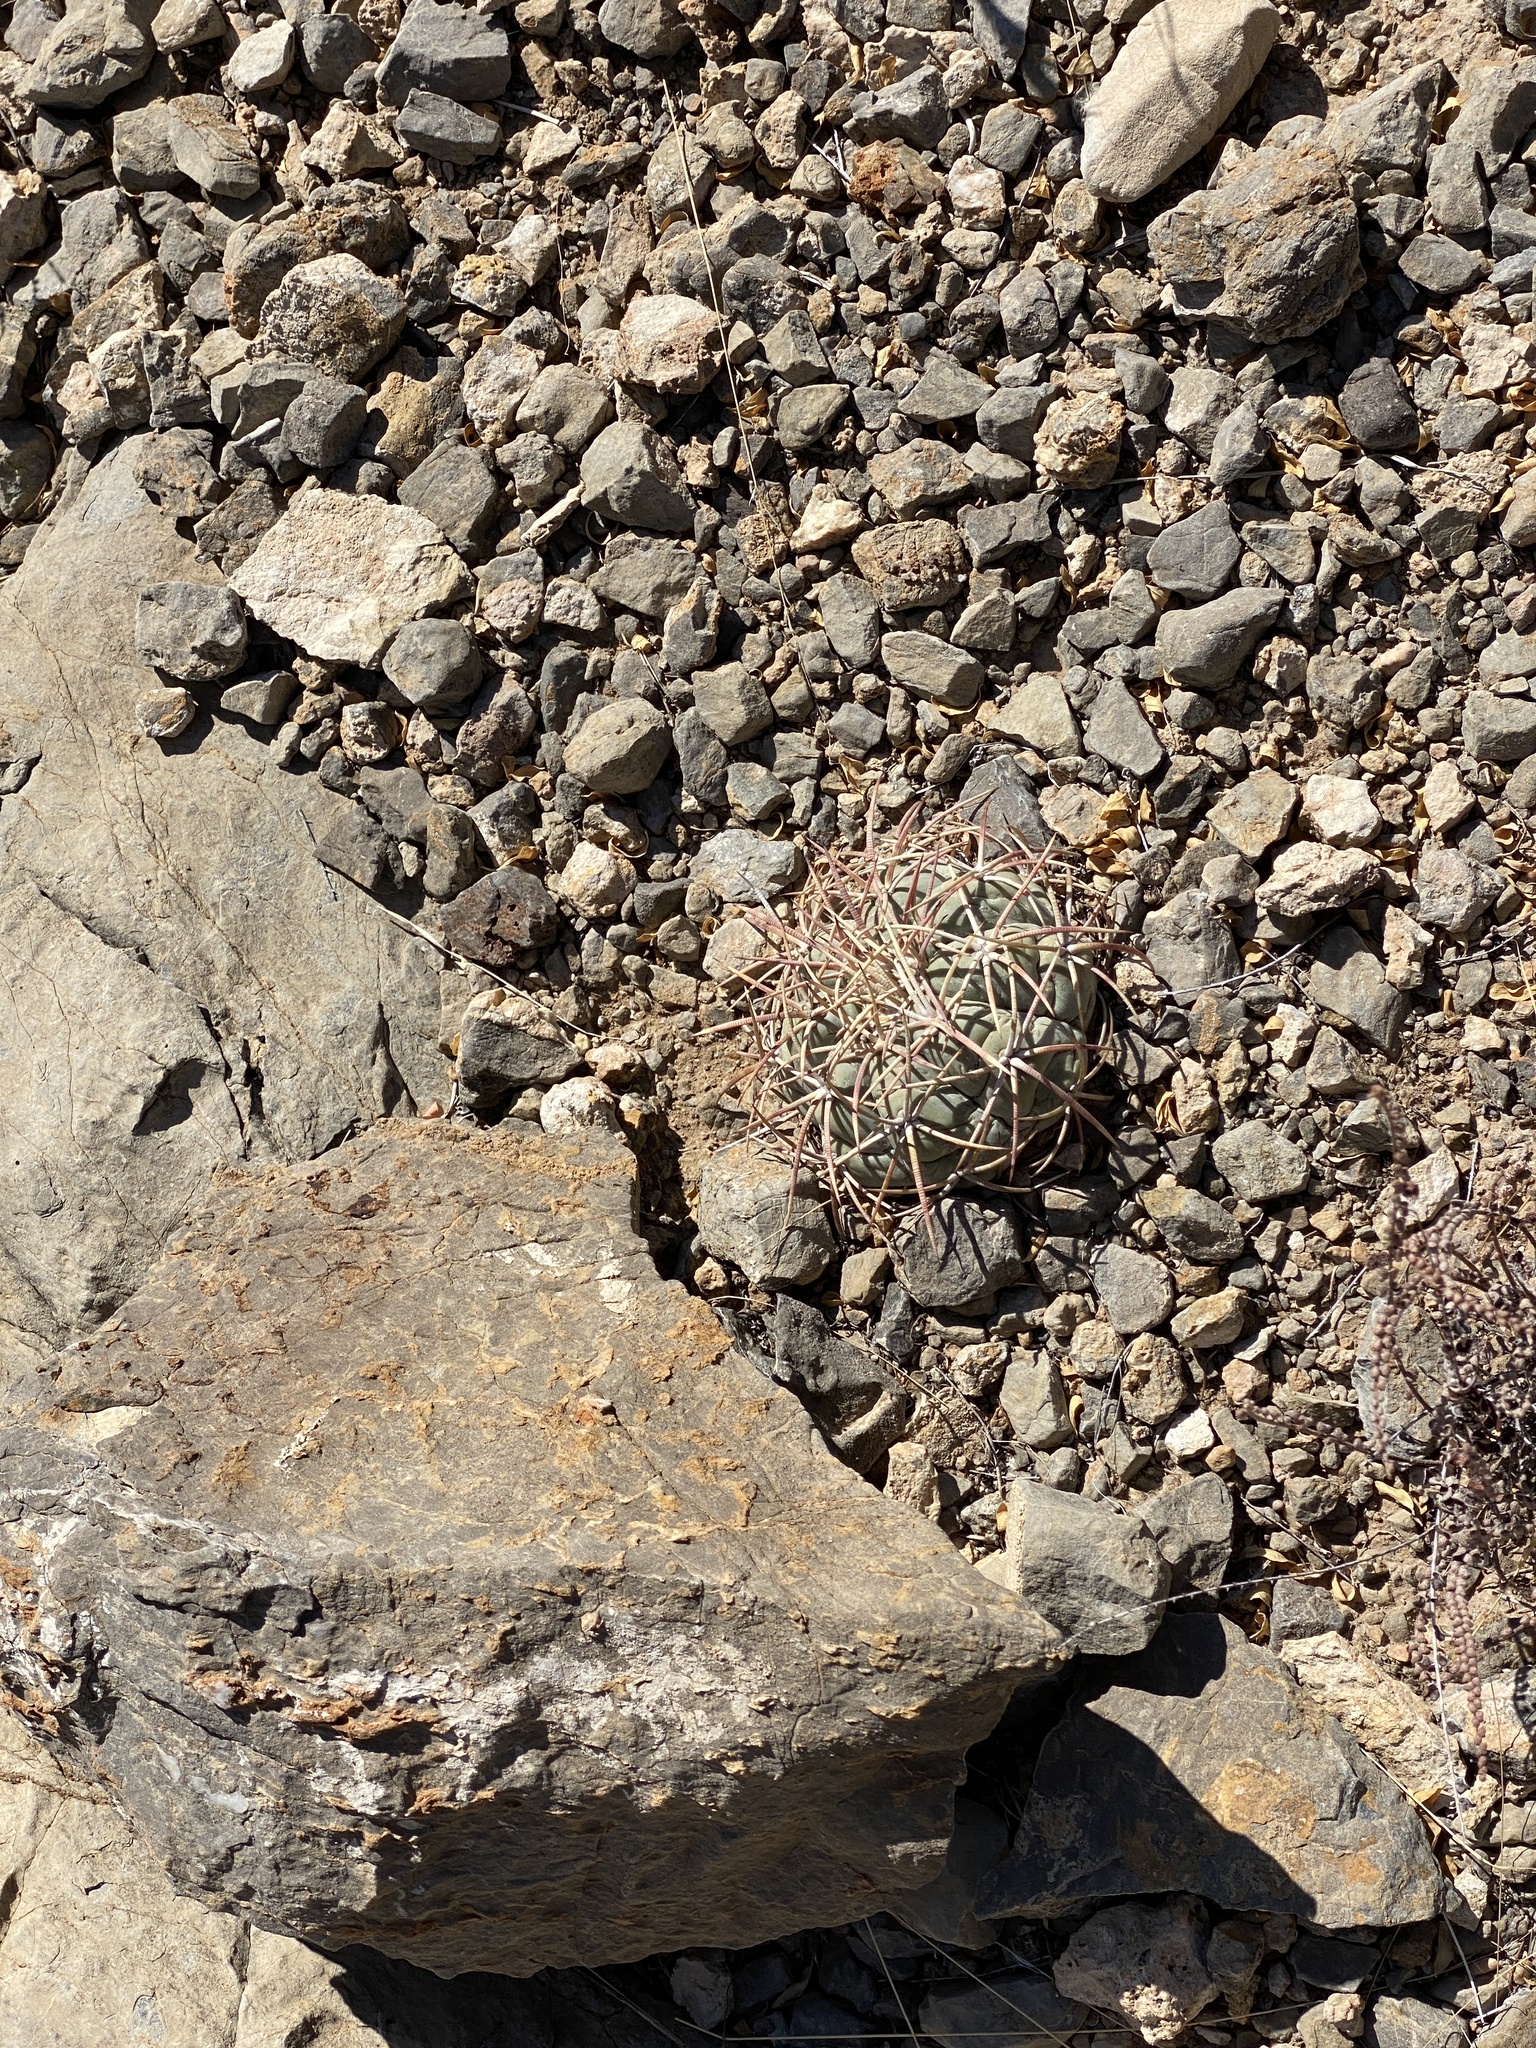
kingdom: Plantae
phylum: Tracheophyta
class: Magnoliopsida
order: Caryophyllales
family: Cactaceae
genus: Echinocactus
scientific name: Echinocactus horizonthalonius
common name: Devilshead
